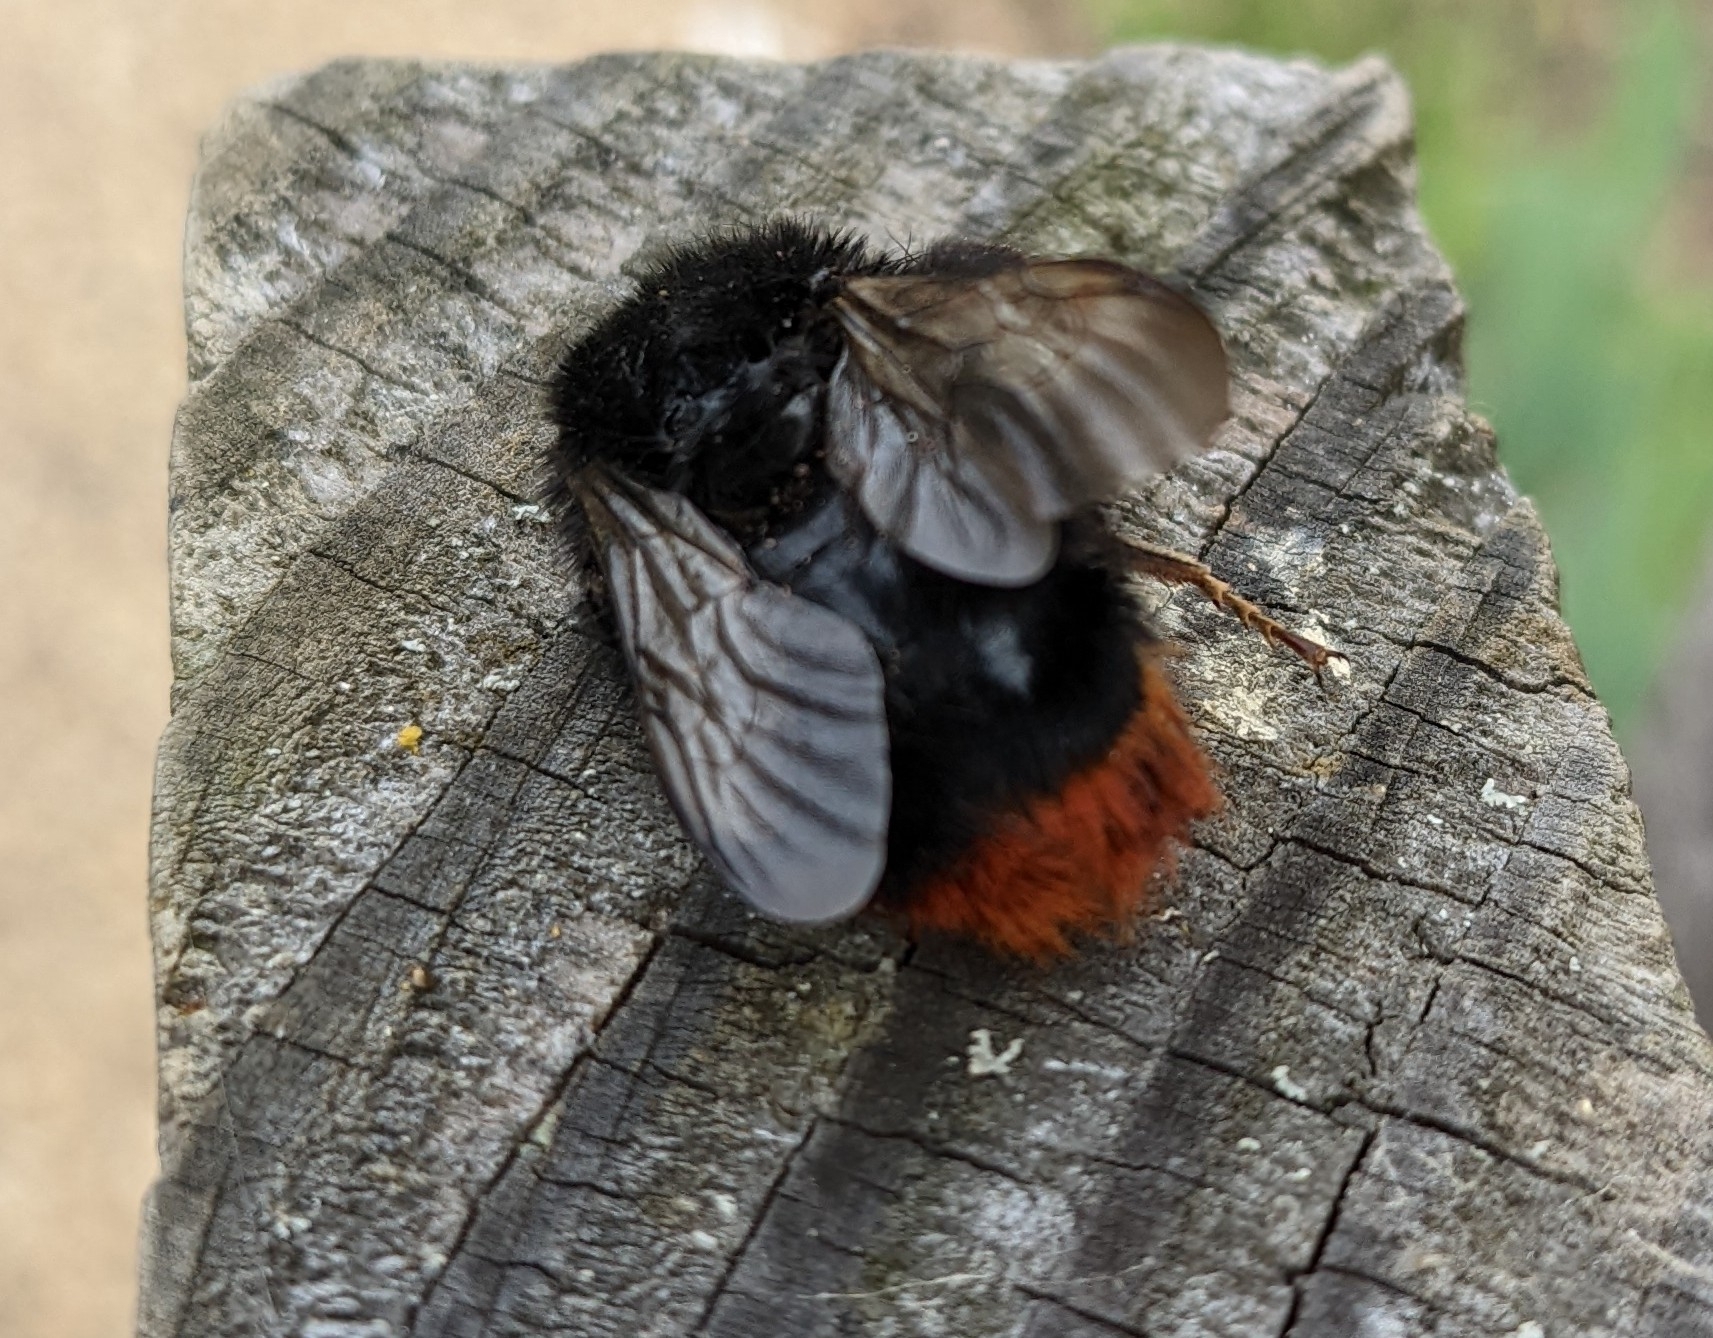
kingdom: Animalia
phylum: Arthropoda
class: Insecta
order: Hymenoptera
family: Apidae
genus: Bombus
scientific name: Bombus lapidarius
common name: Large red-tailed humble-bee
